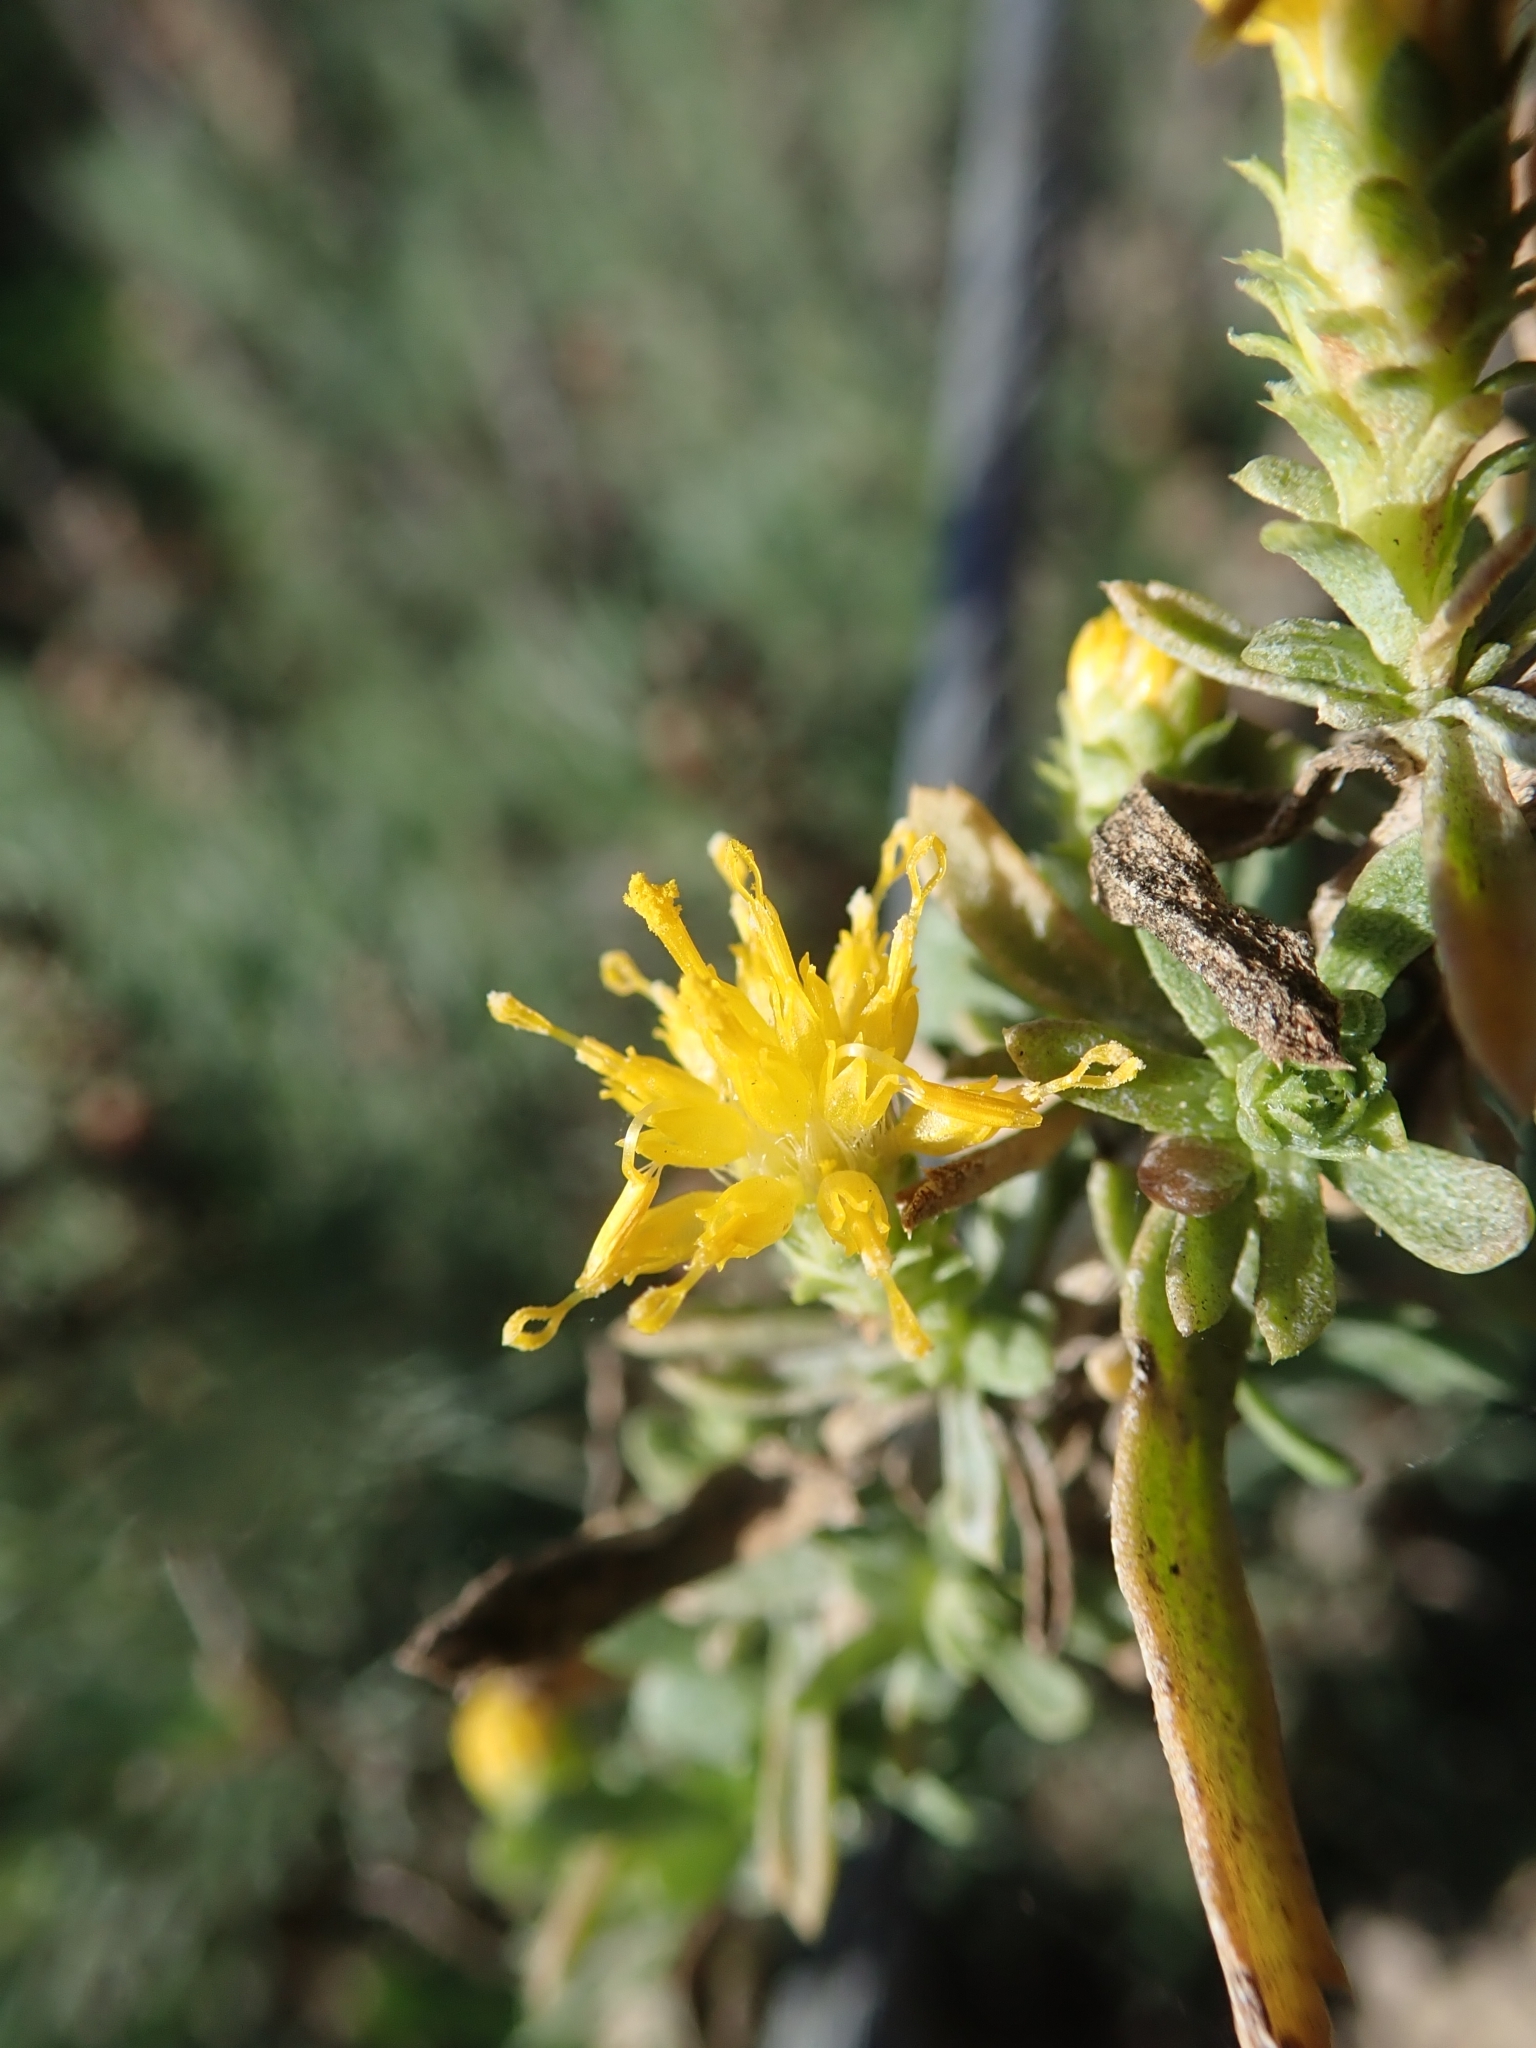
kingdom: Plantae
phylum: Tracheophyta
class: Magnoliopsida
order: Asterales
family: Asteraceae
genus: Isocoma
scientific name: Isocoma menziesii
